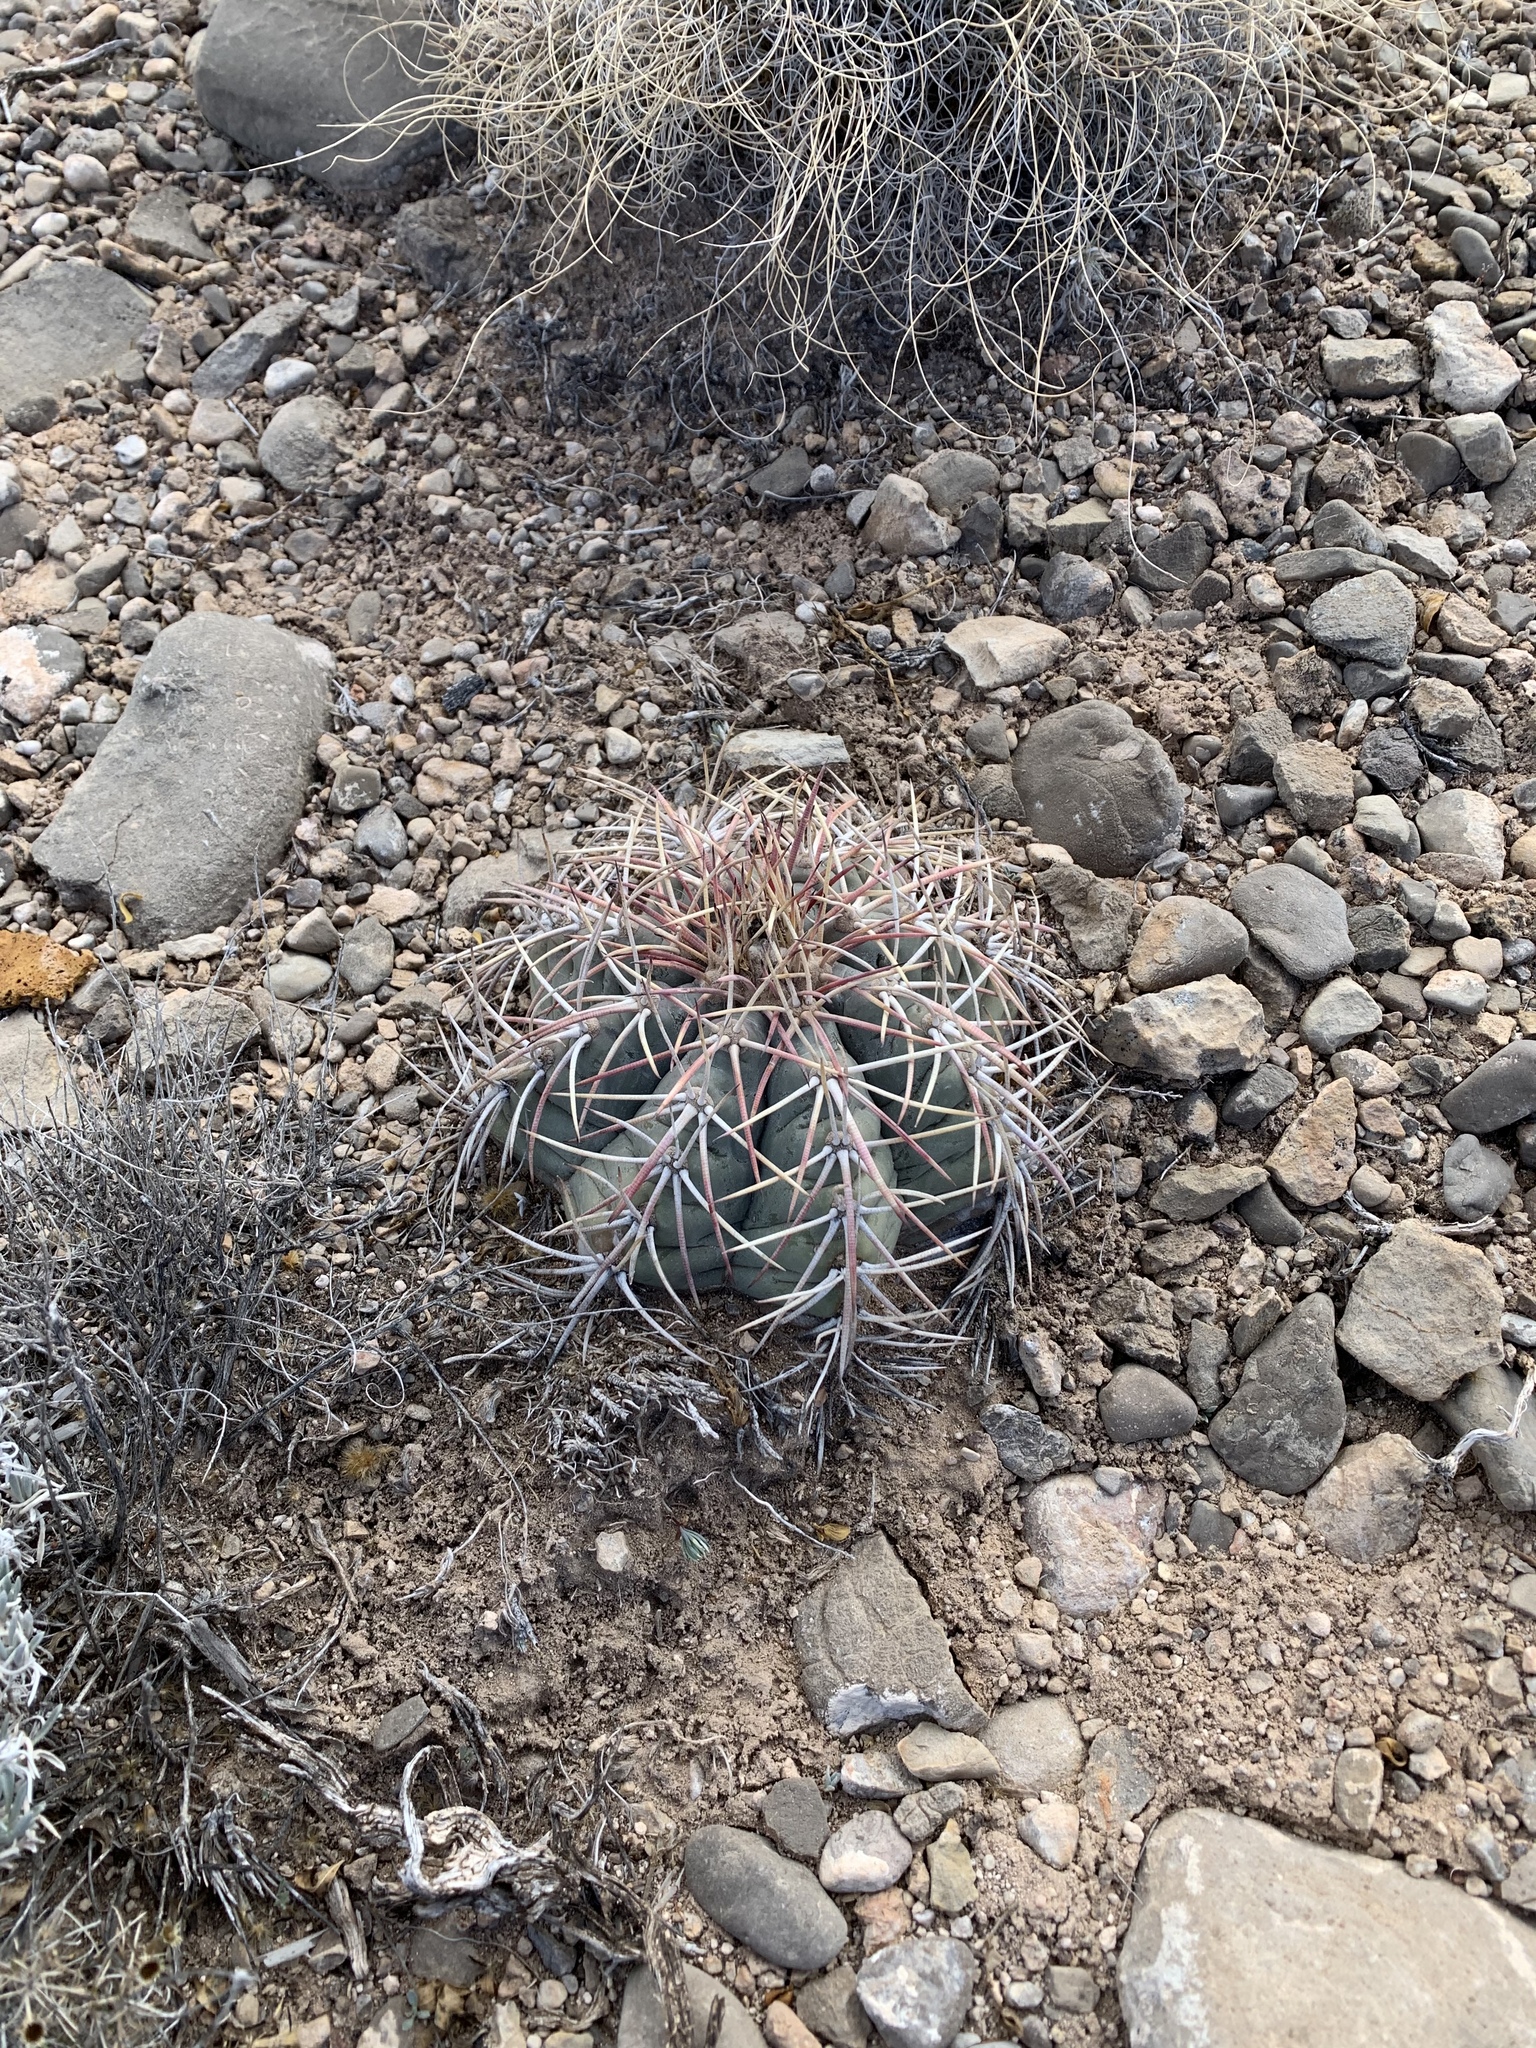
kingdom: Plantae
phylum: Tracheophyta
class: Magnoliopsida
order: Caryophyllales
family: Cactaceae
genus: Echinocactus
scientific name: Echinocactus horizonthalonius
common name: Devilshead
